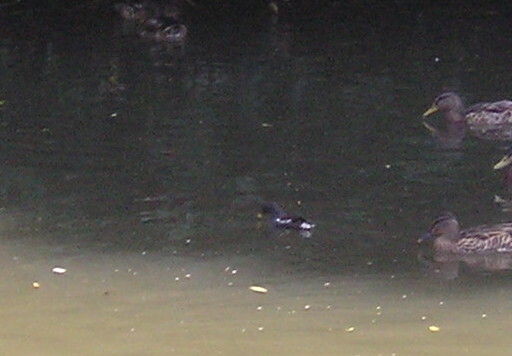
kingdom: Animalia
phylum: Chordata
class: Aves
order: Gruiformes
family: Rallidae
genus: Gallinula
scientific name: Gallinula chloropus
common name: Common moorhen
